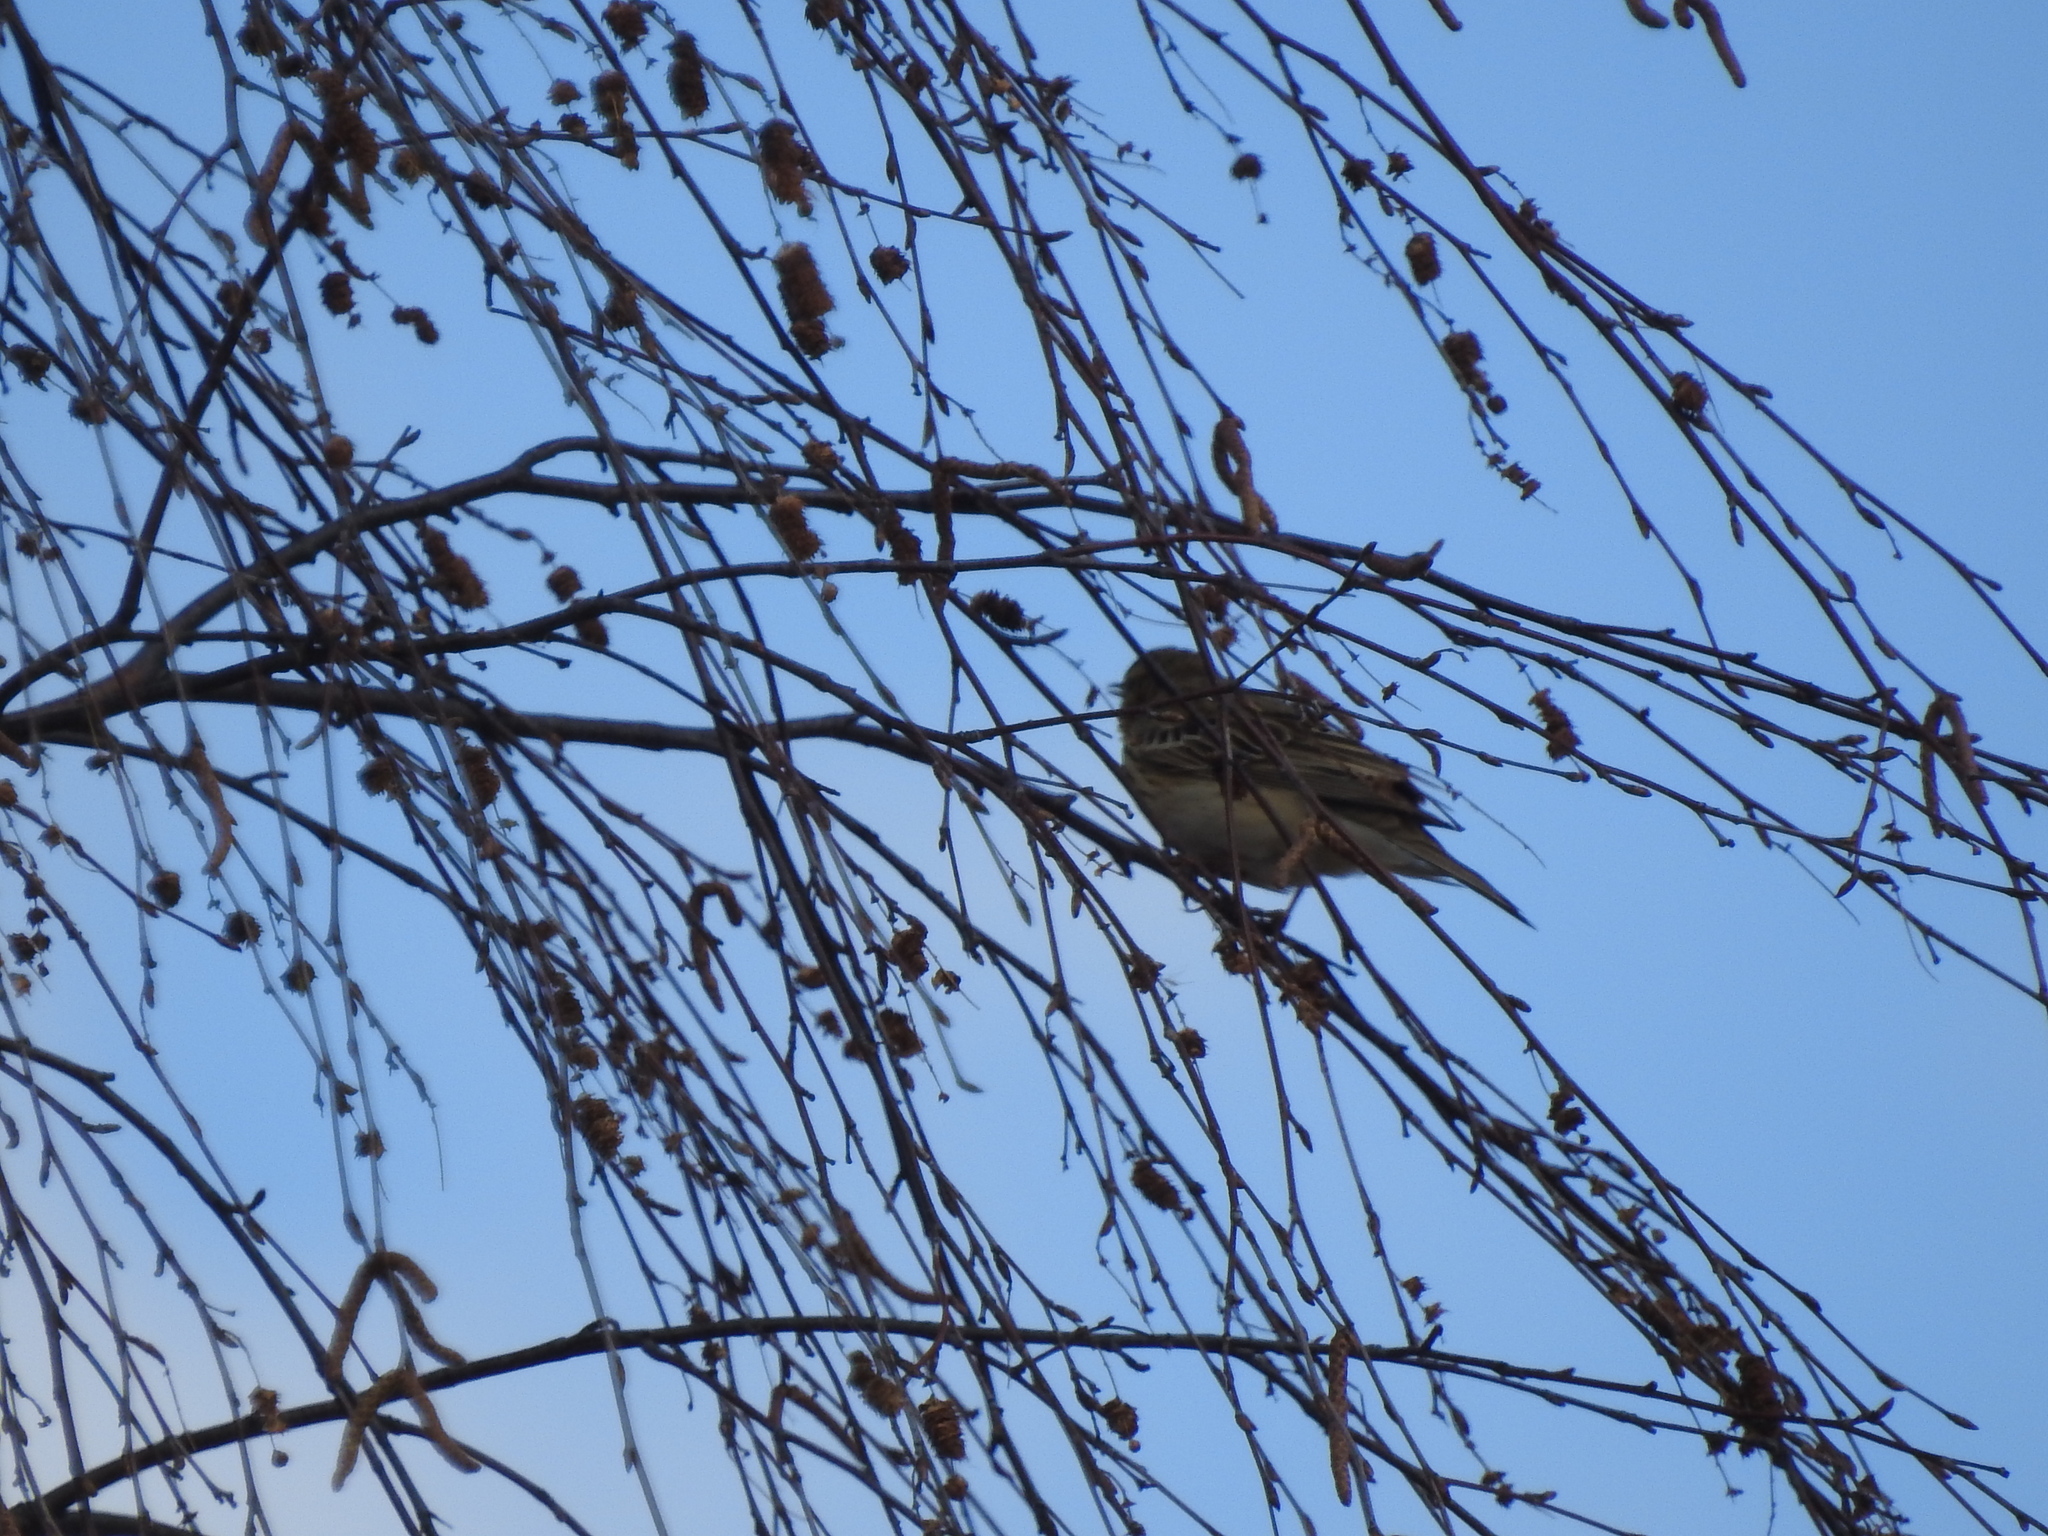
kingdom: Animalia
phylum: Chordata
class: Aves
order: Passeriformes
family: Motacillidae
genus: Anthus
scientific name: Anthus trivialis
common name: Tree pipit
